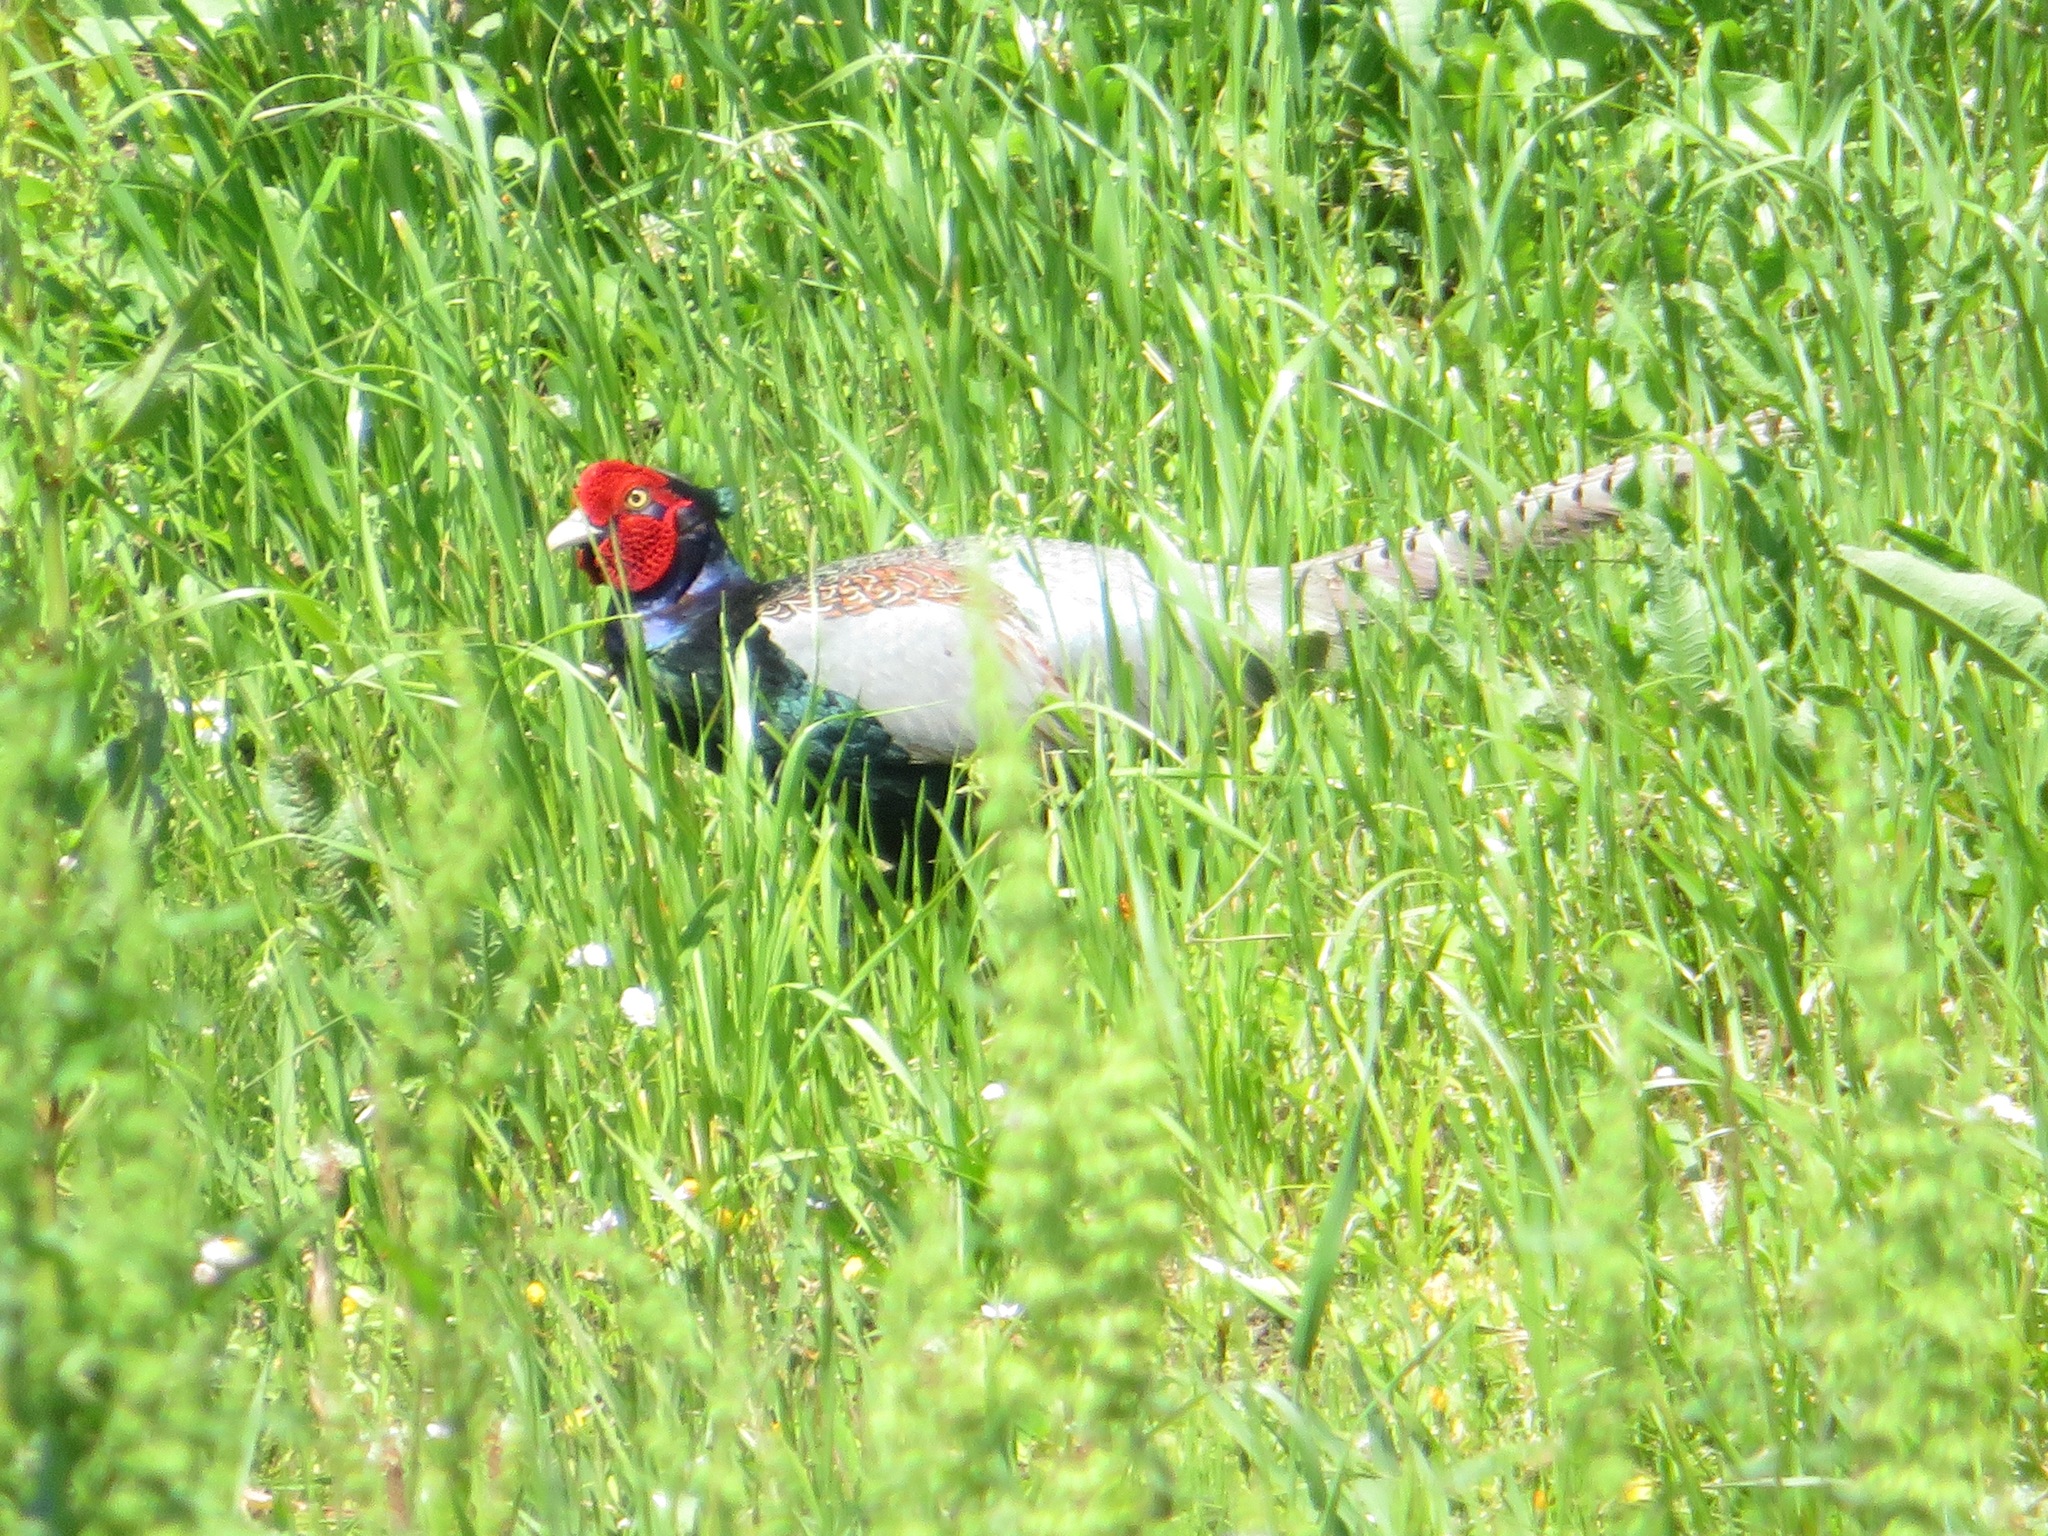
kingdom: Animalia
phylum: Chordata
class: Aves
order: Galliformes
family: Phasianidae
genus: Phasianus
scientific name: Phasianus versicolor
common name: Green pheasant
